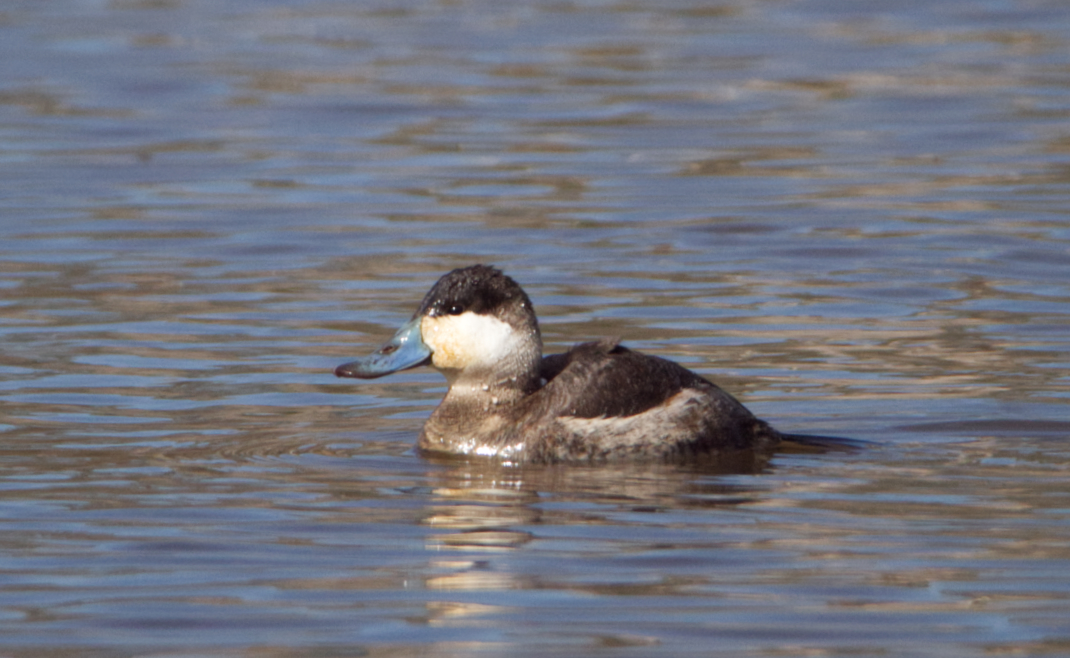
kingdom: Animalia
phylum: Chordata
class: Aves
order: Anseriformes
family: Anatidae
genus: Oxyura
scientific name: Oxyura jamaicensis
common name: Ruddy duck
